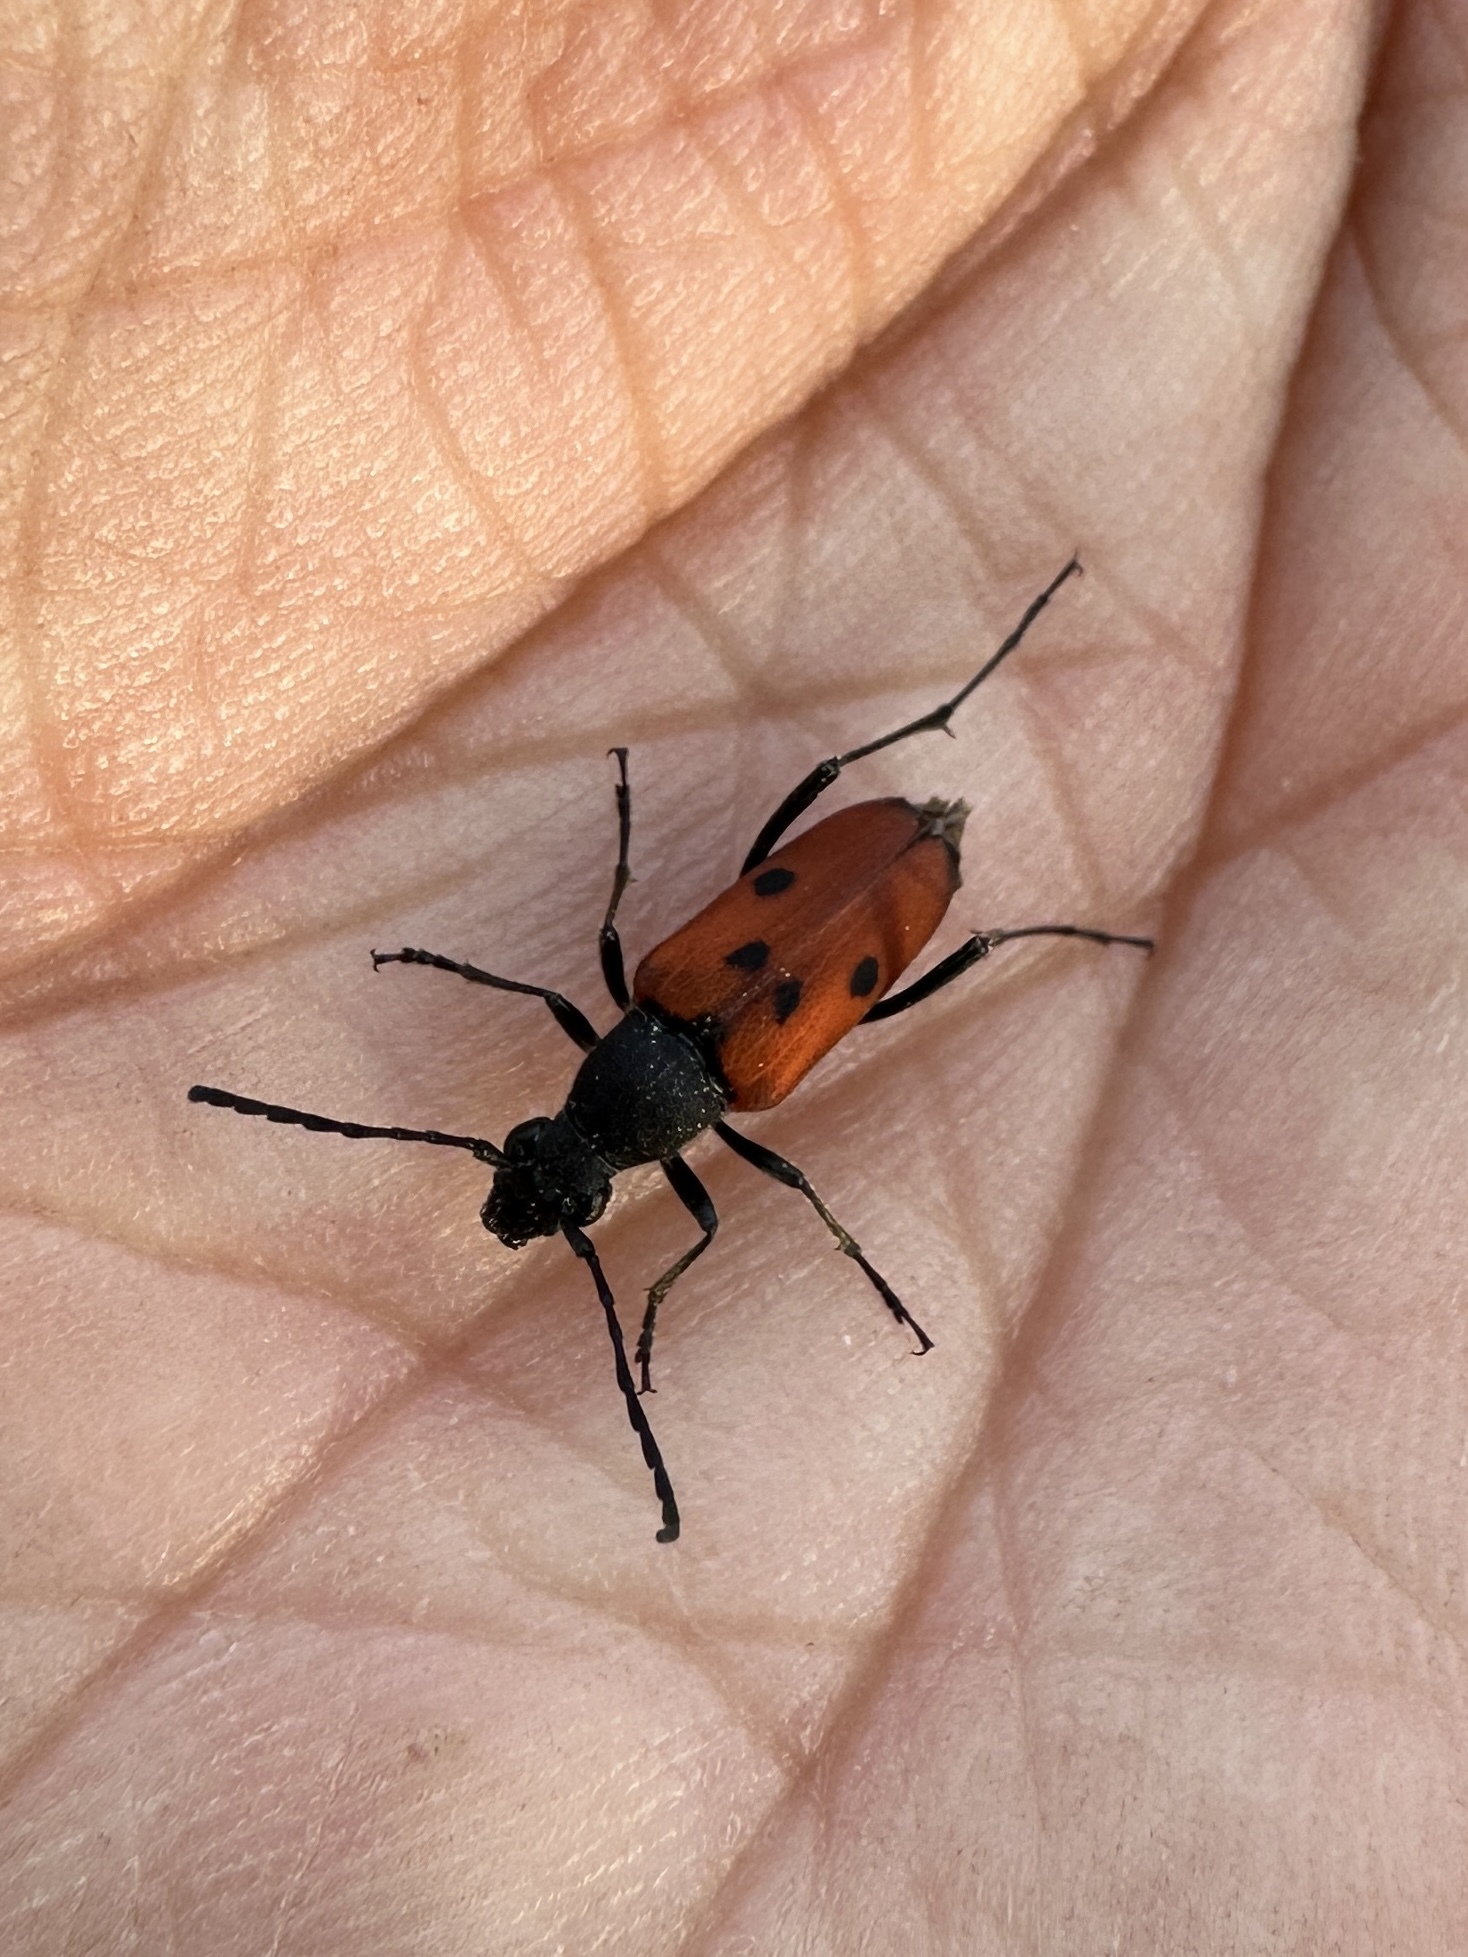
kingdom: Animalia
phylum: Arthropoda
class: Insecta
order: Coleoptera
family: Cerambycidae
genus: Anastrangalia
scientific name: Anastrangalia laetifica
